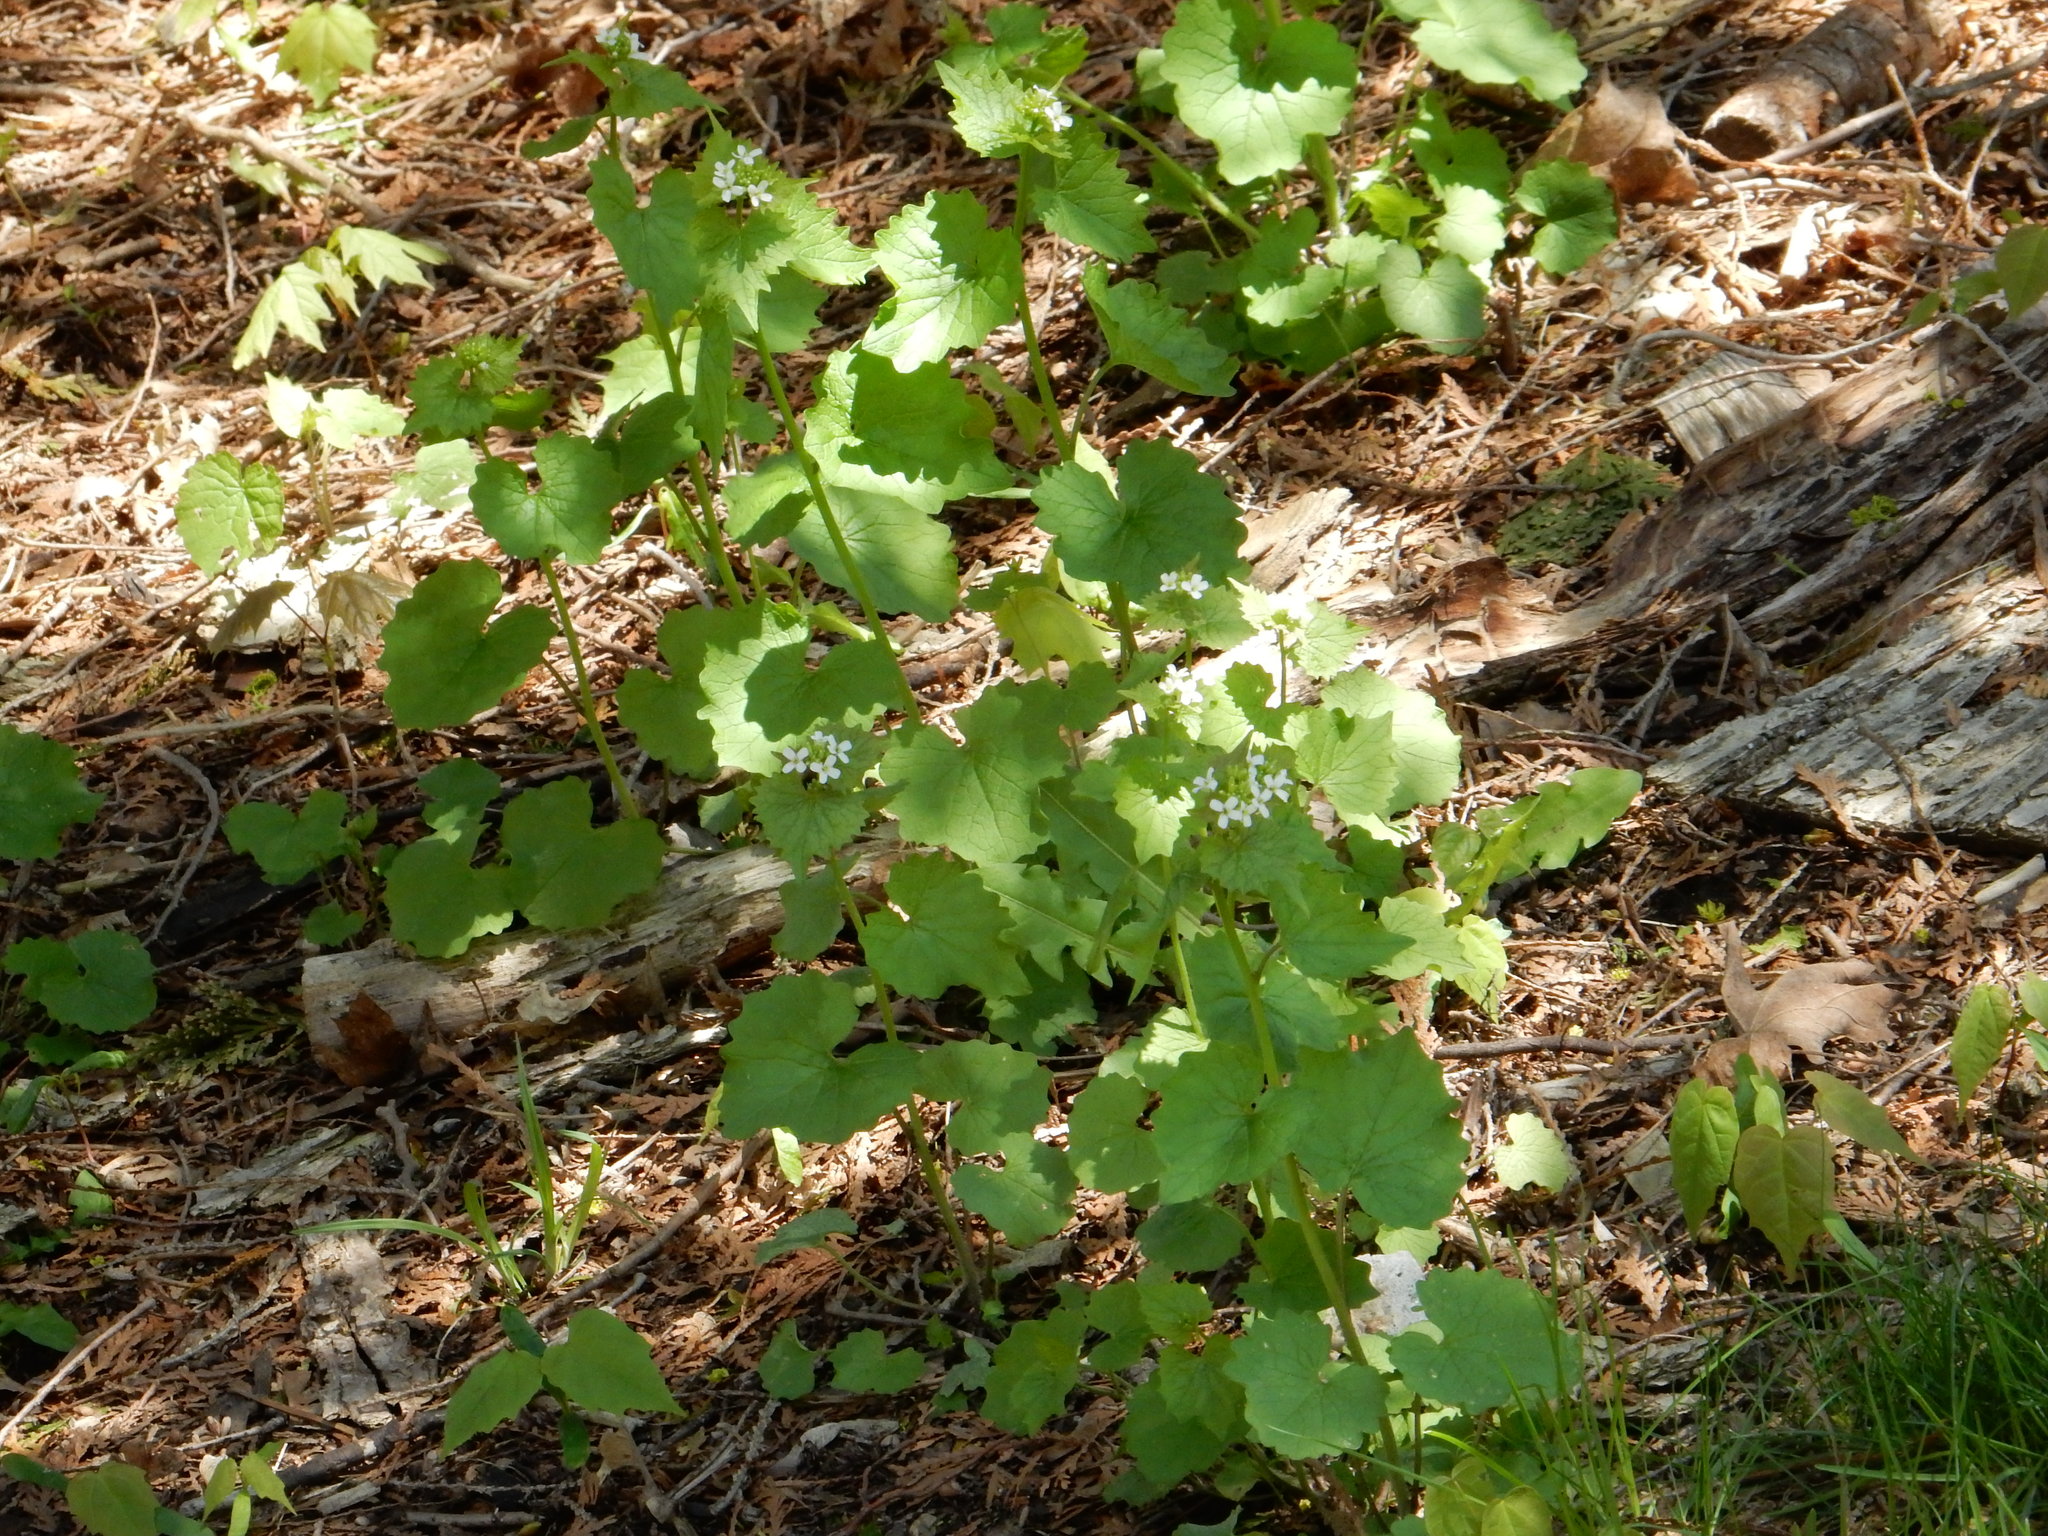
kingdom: Plantae
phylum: Tracheophyta
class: Magnoliopsida
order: Brassicales
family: Brassicaceae
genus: Alliaria
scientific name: Alliaria petiolata
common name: Garlic mustard
